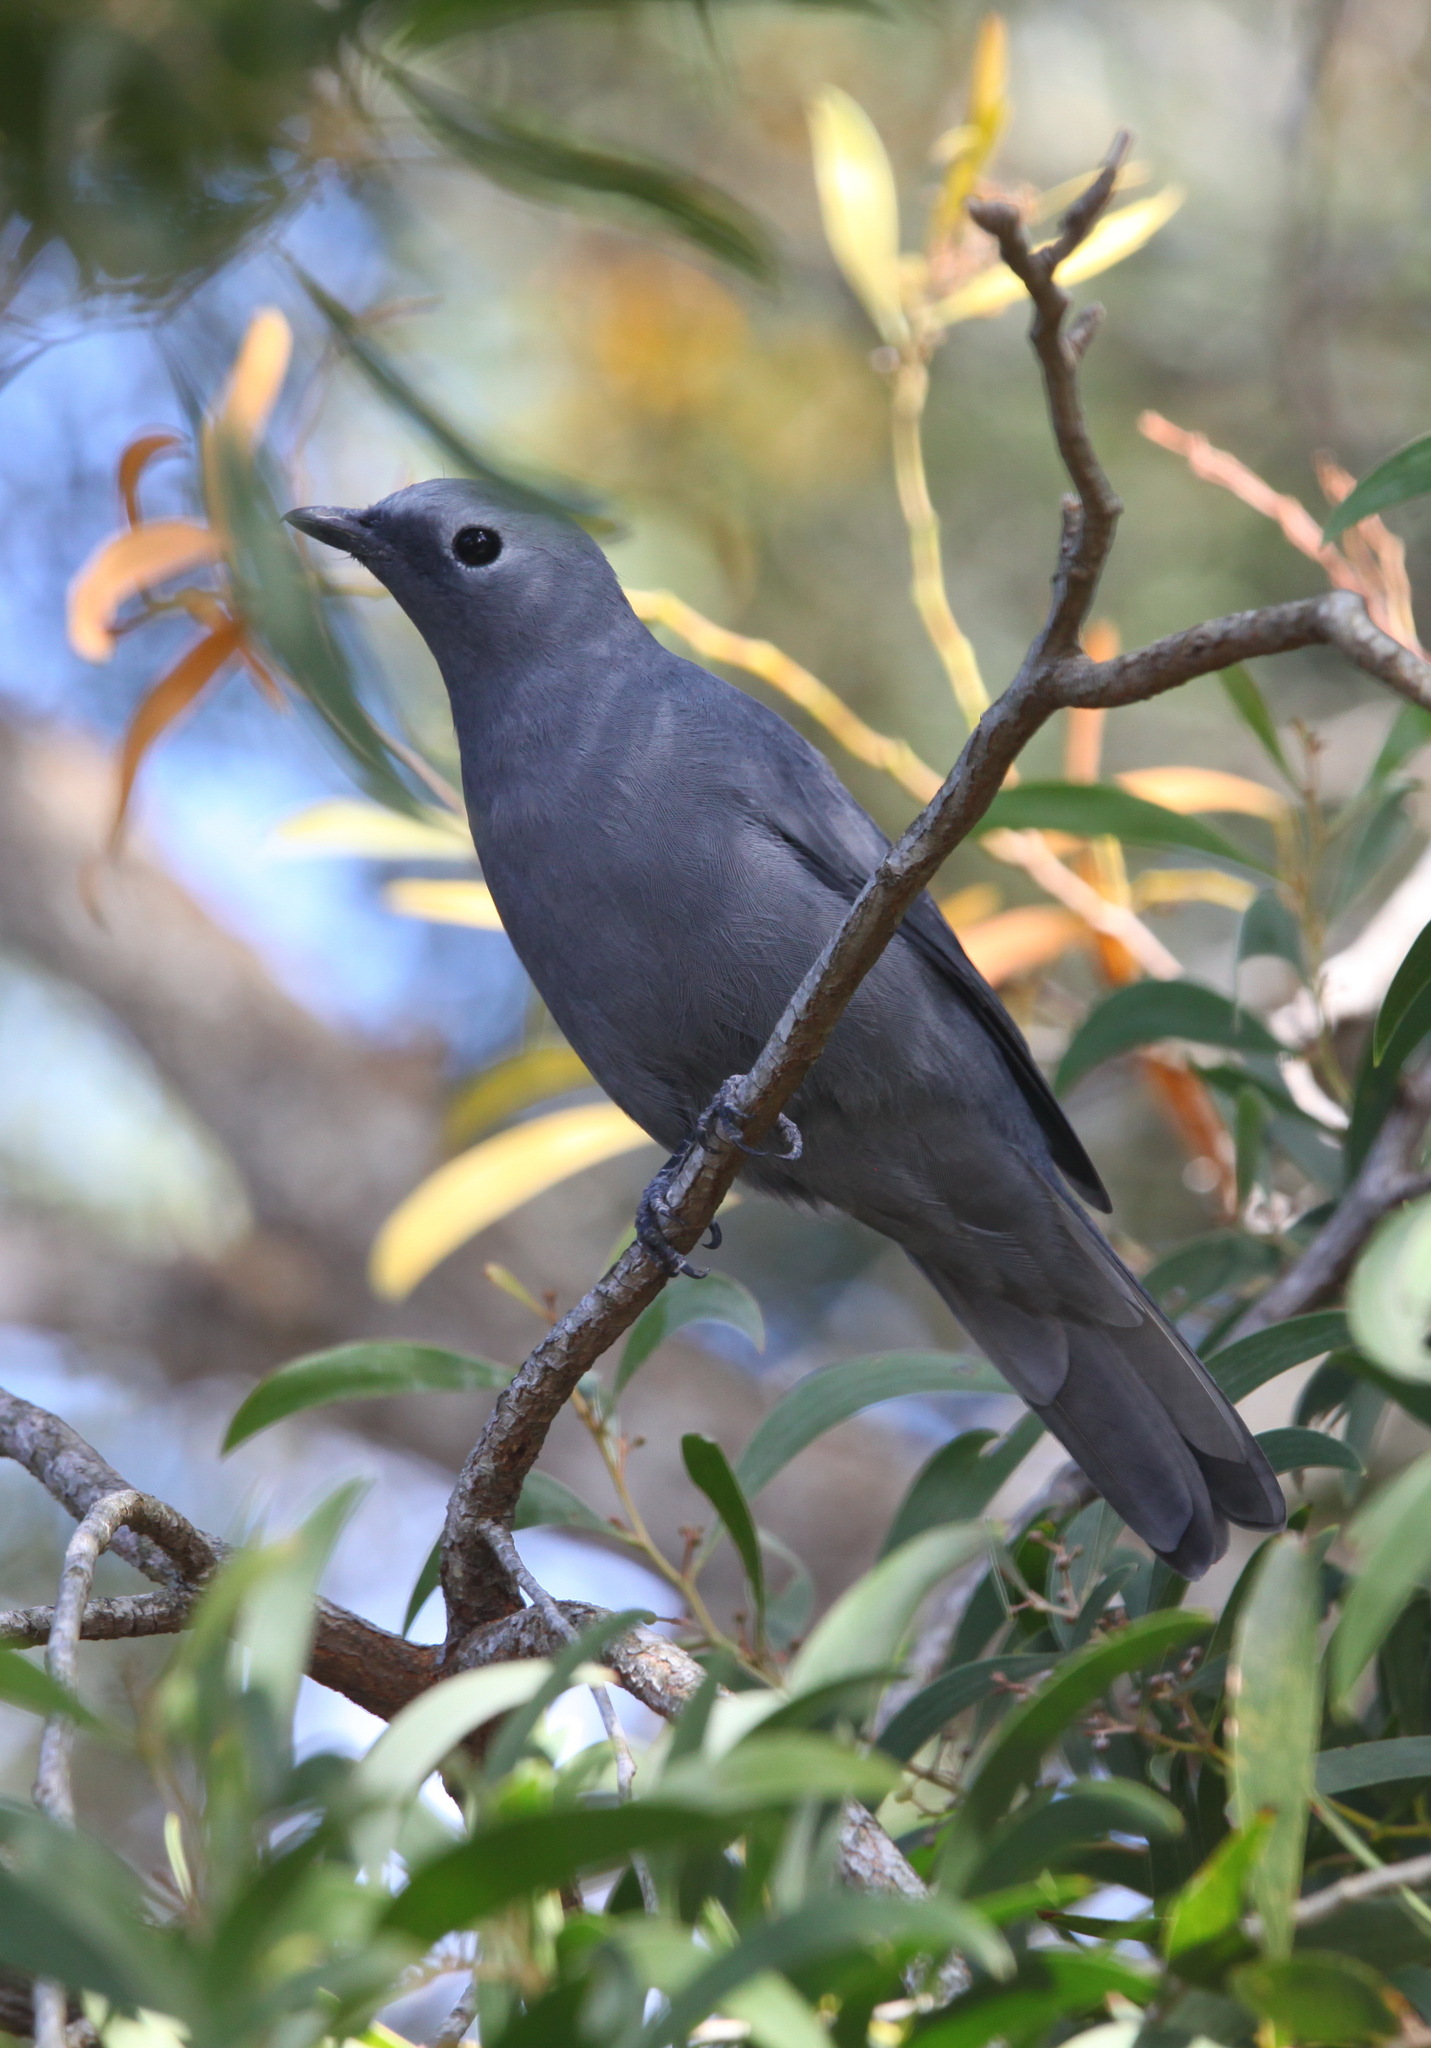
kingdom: Animalia
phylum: Chordata
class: Aves
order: Passeriformes
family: Campephagidae
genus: Coracina
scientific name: Coracina caesia
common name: Grey cuckooshrike
